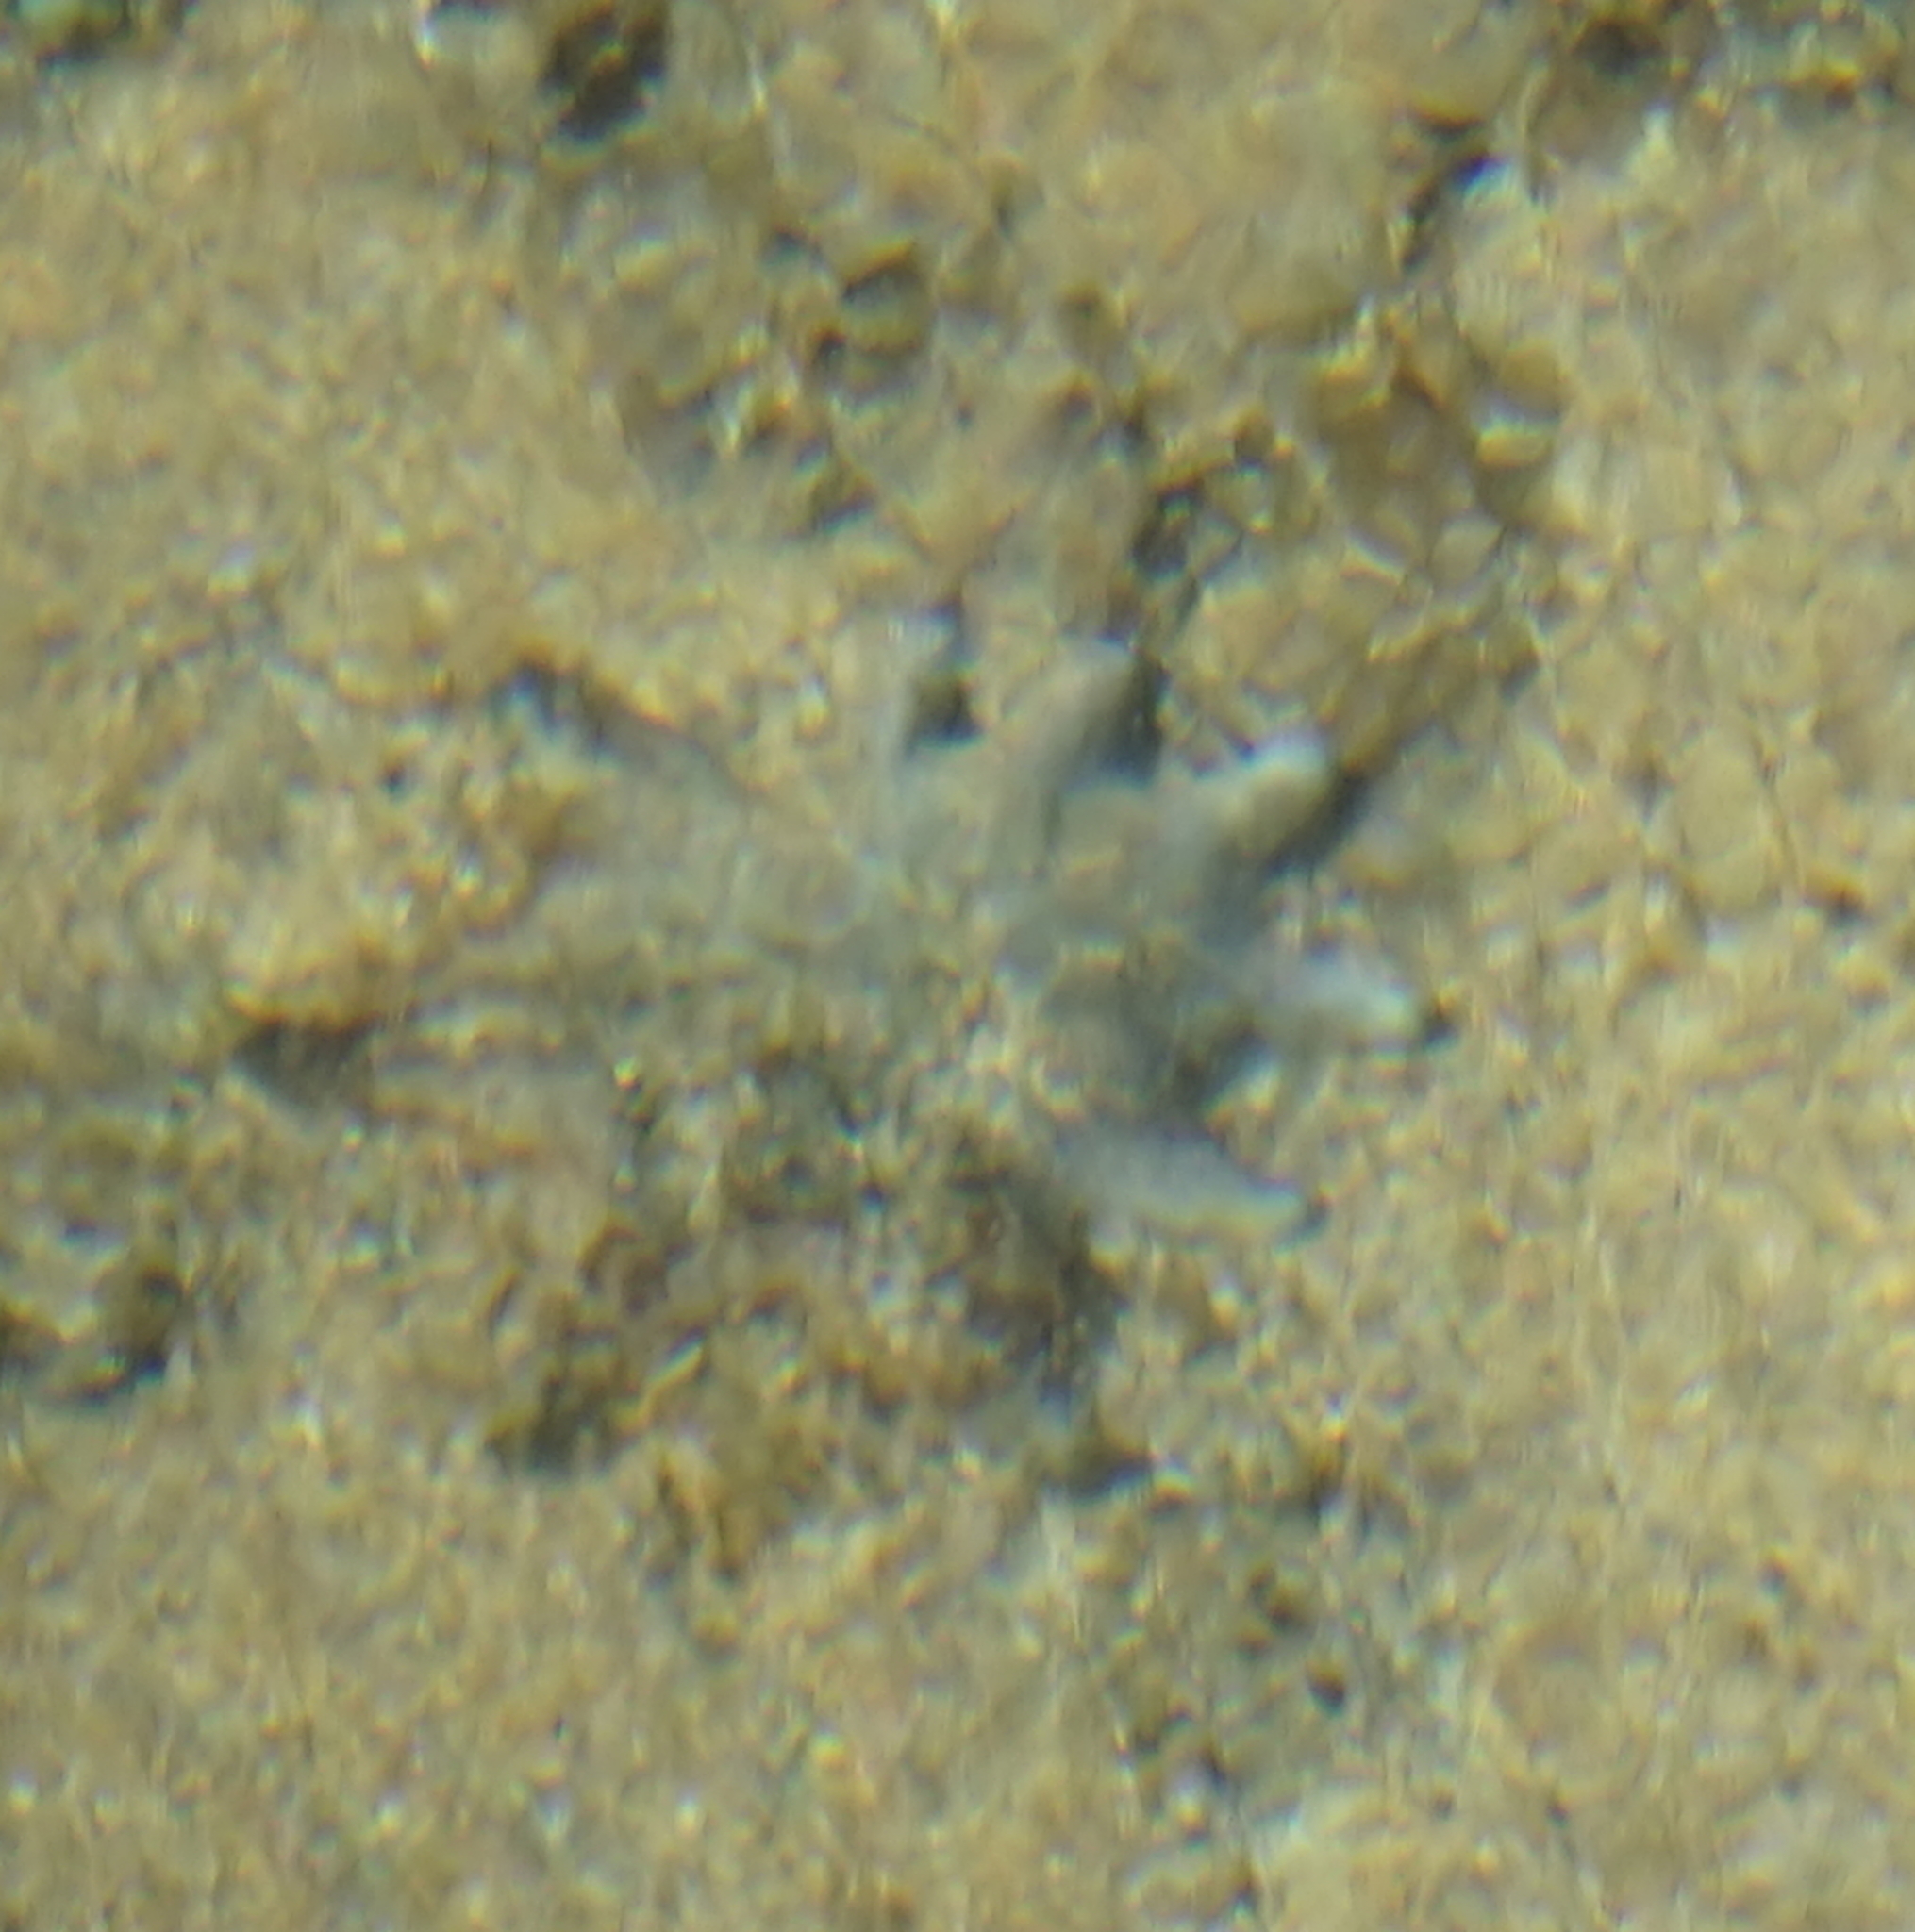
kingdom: Animalia
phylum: Echinodermata
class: Asteroidea
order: Valvatida
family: Asterinidae
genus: Meridiastra
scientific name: Meridiastra calcar
